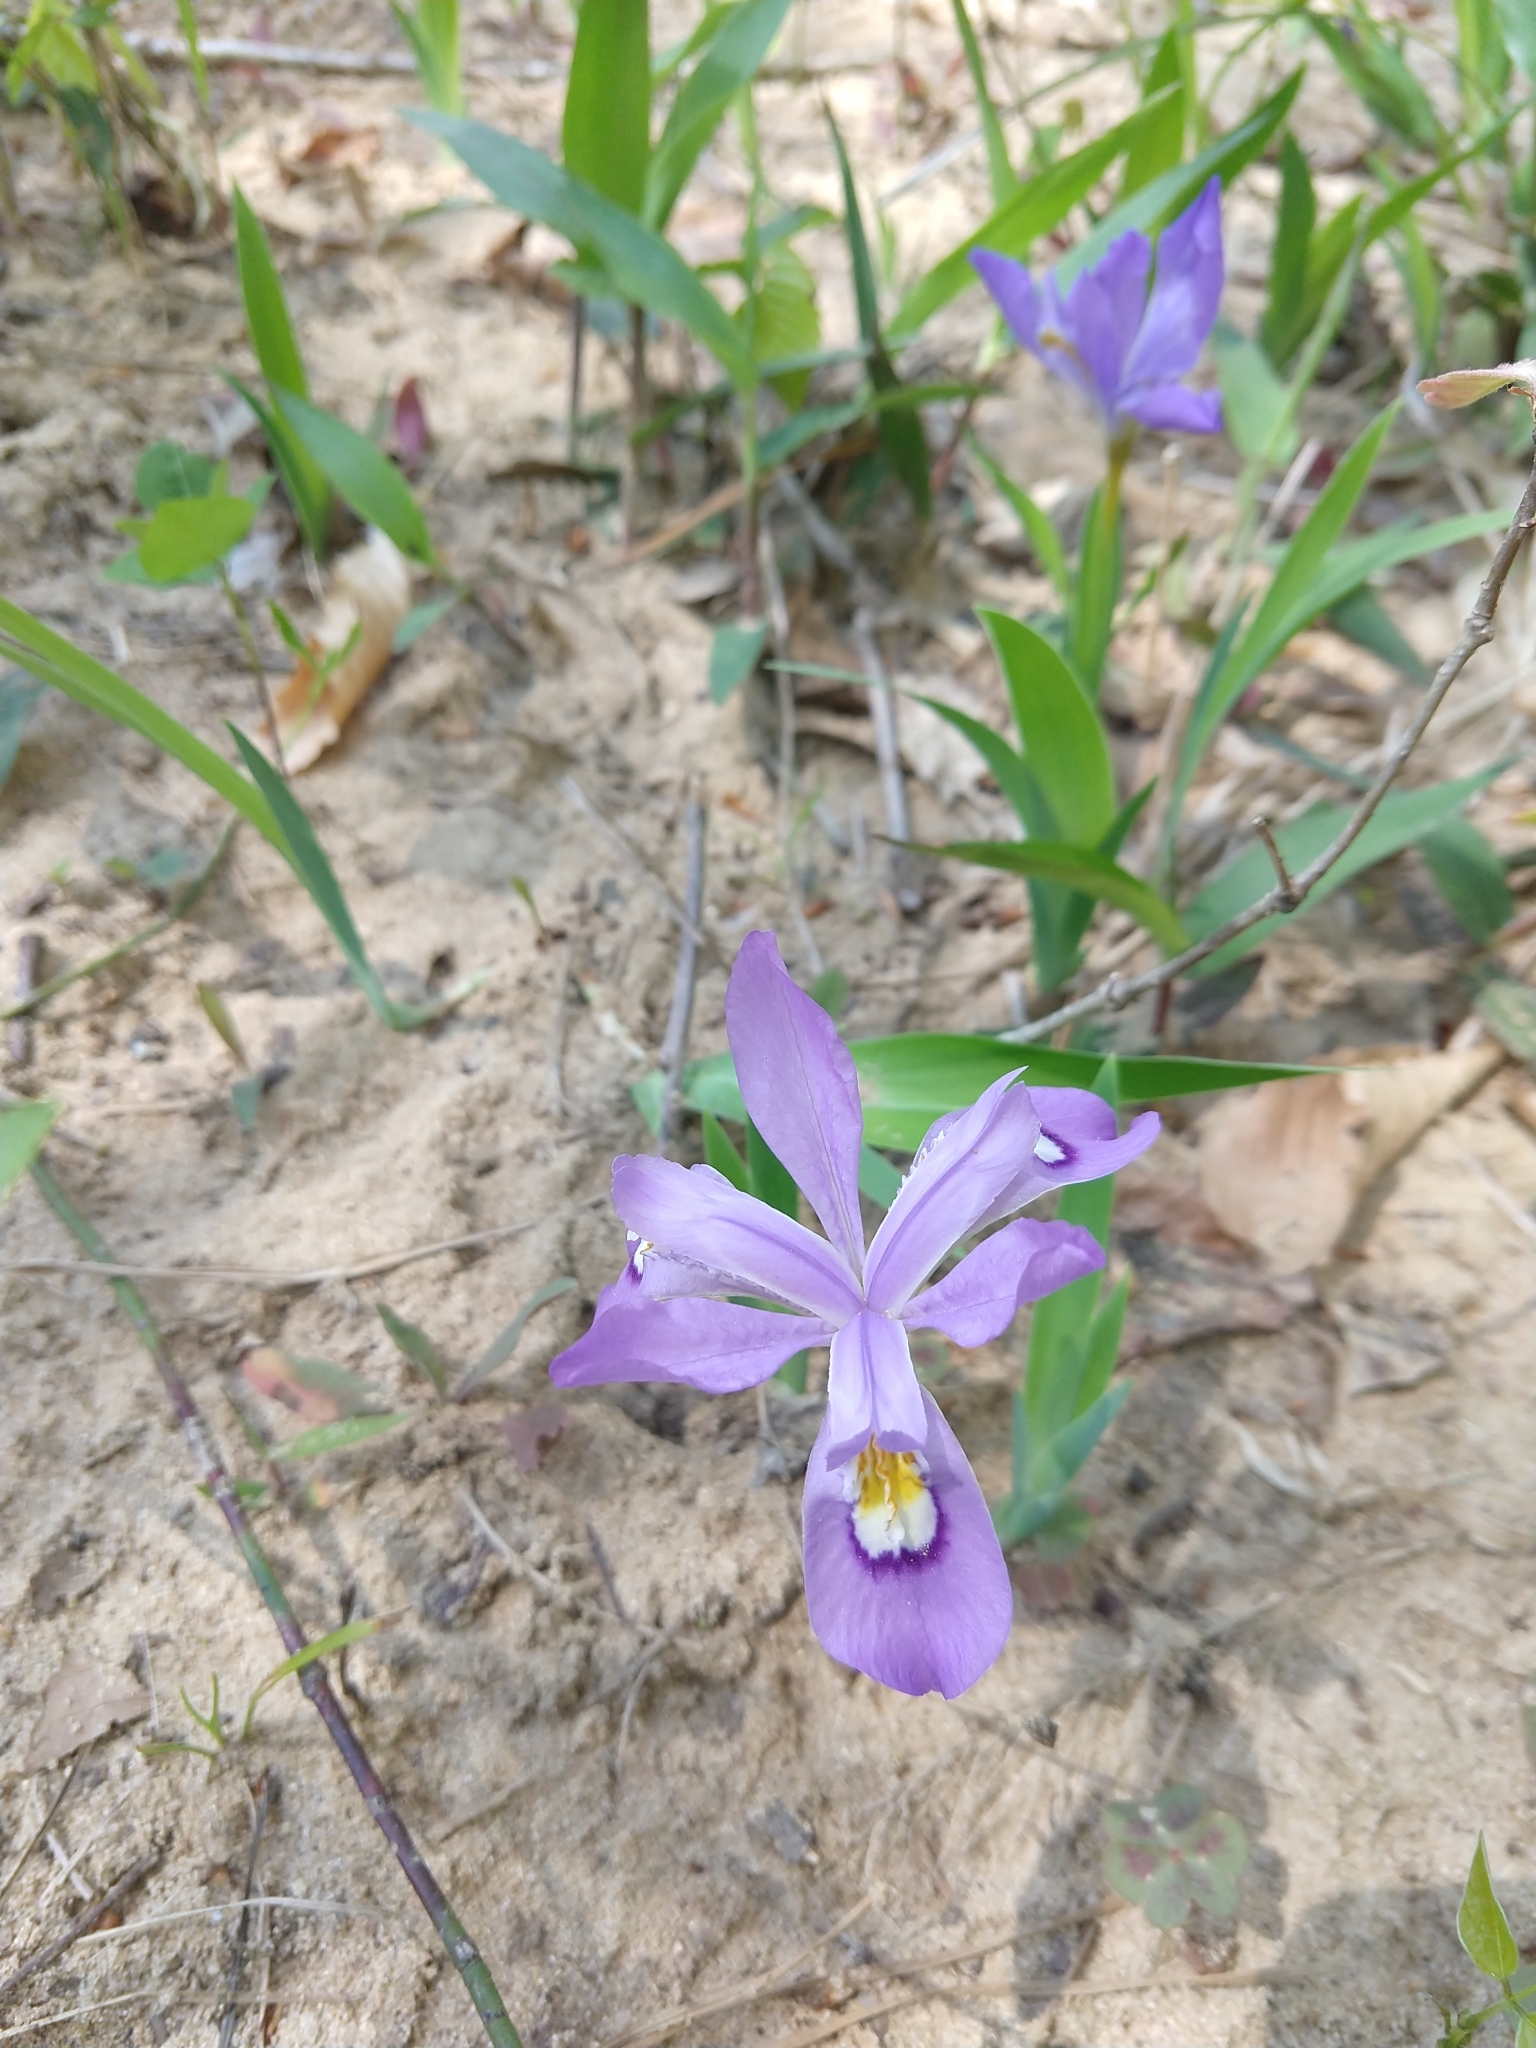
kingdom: Plantae
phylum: Tracheophyta
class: Liliopsida
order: Asparagales
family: Iridaceae
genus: Iris
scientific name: Iris cristata
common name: Crested iris
